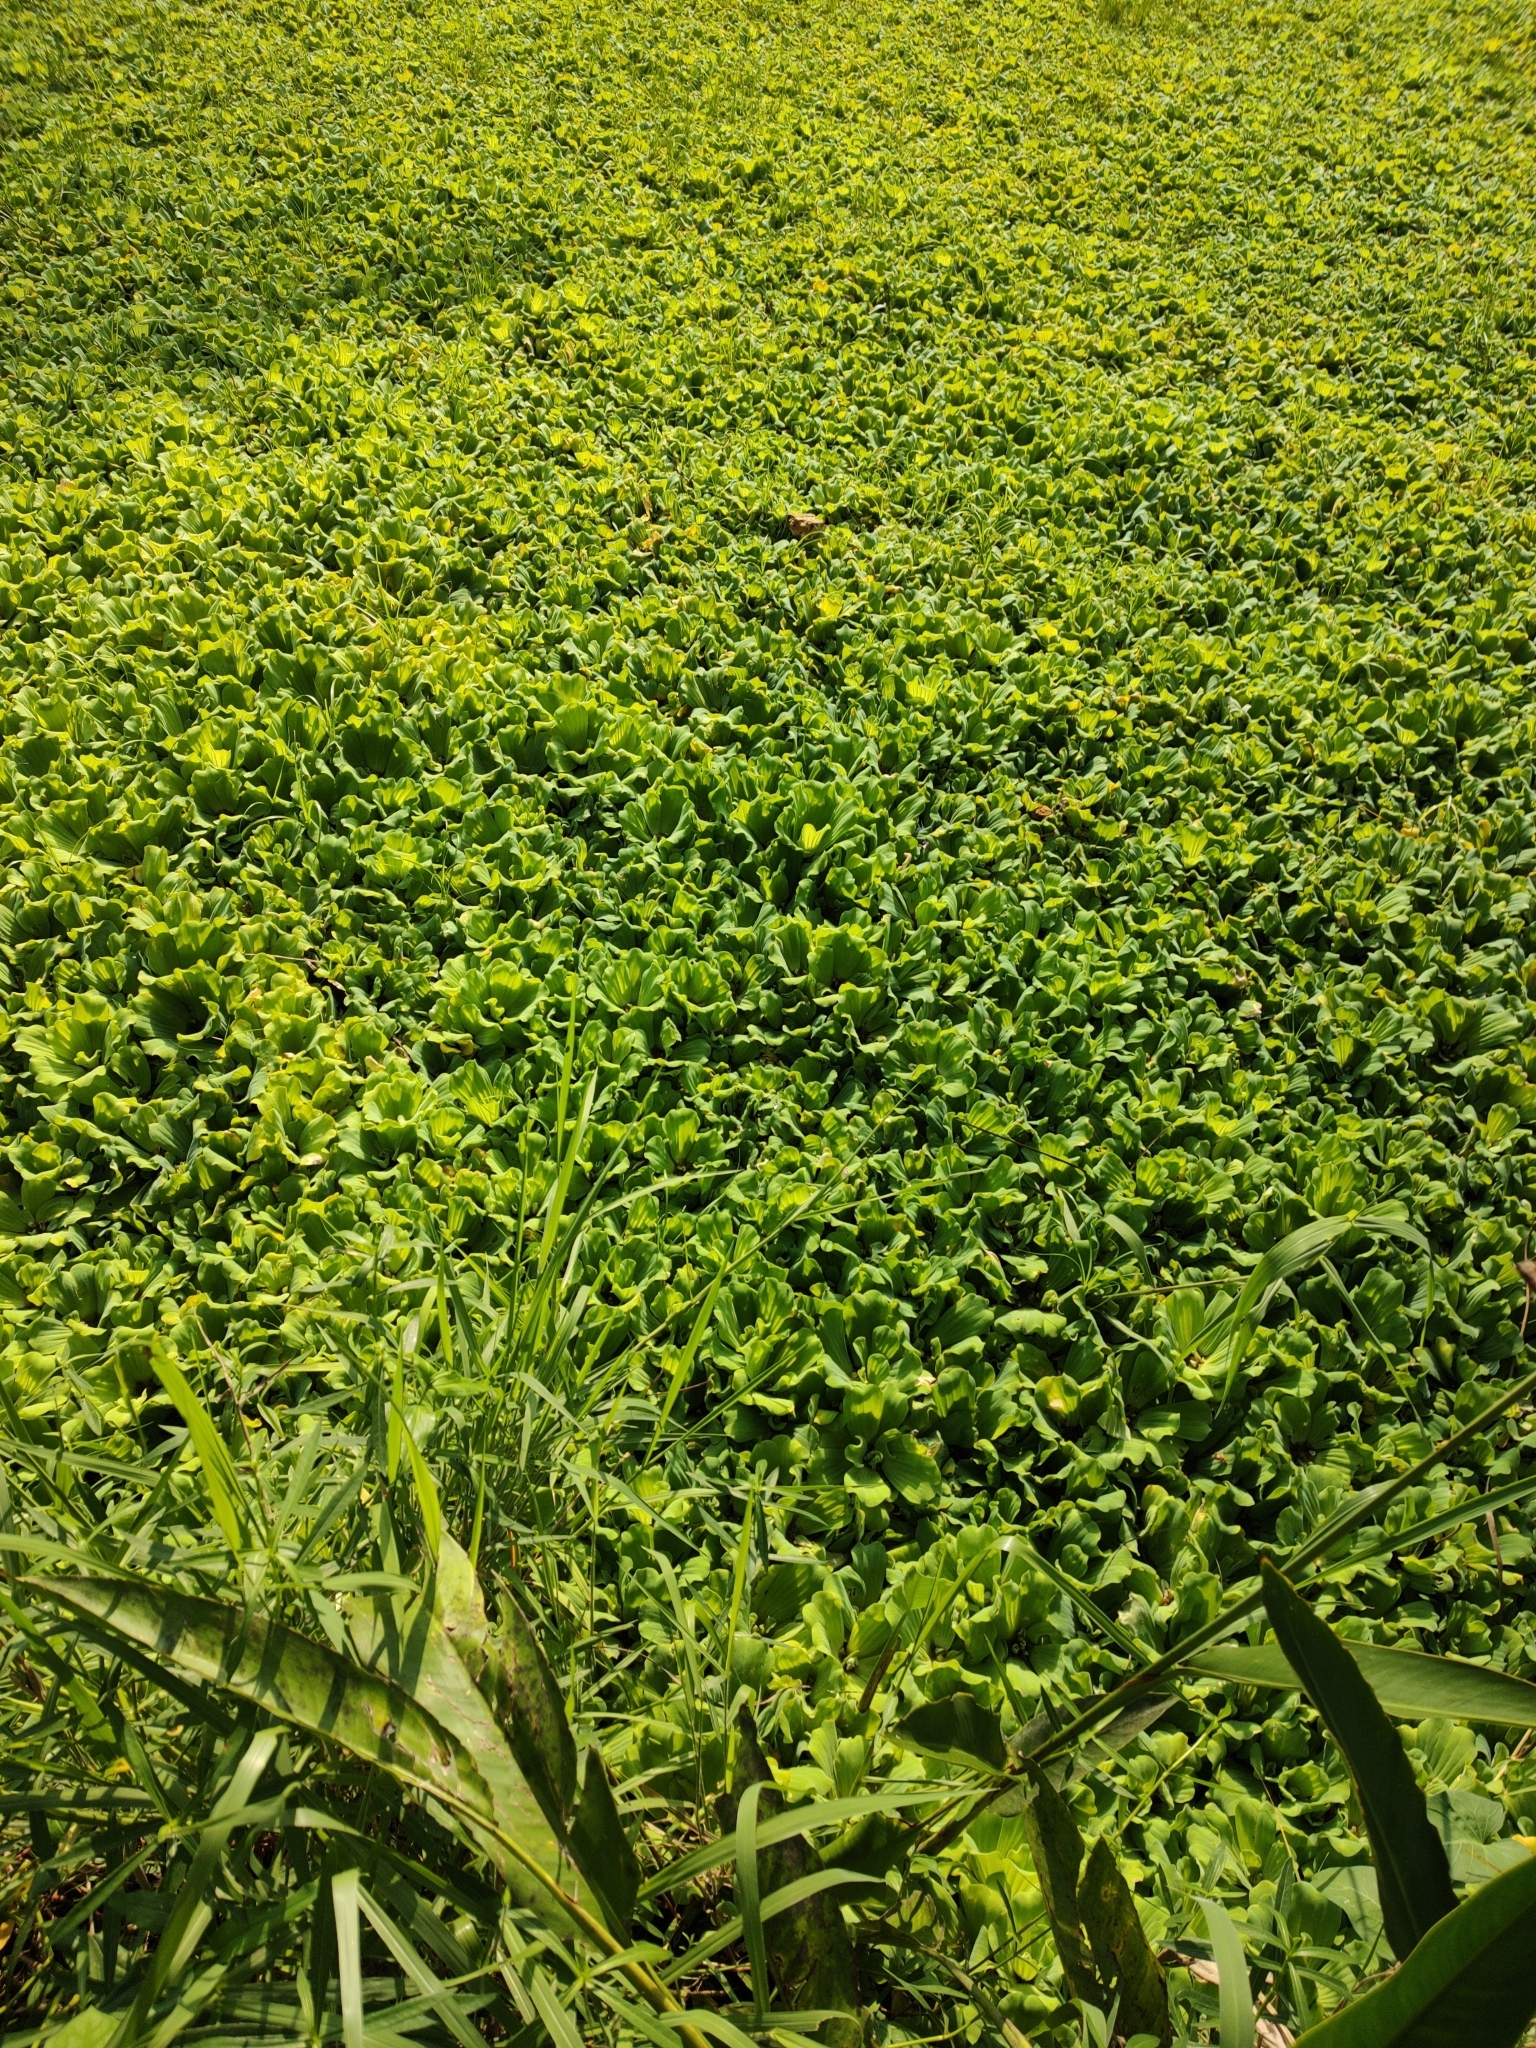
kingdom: Plantae
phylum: Tracheophyta
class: Liliopsida
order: Alismatales
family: Araceae
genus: Pistia
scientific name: Pistia stratiotes
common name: Water lettuce
